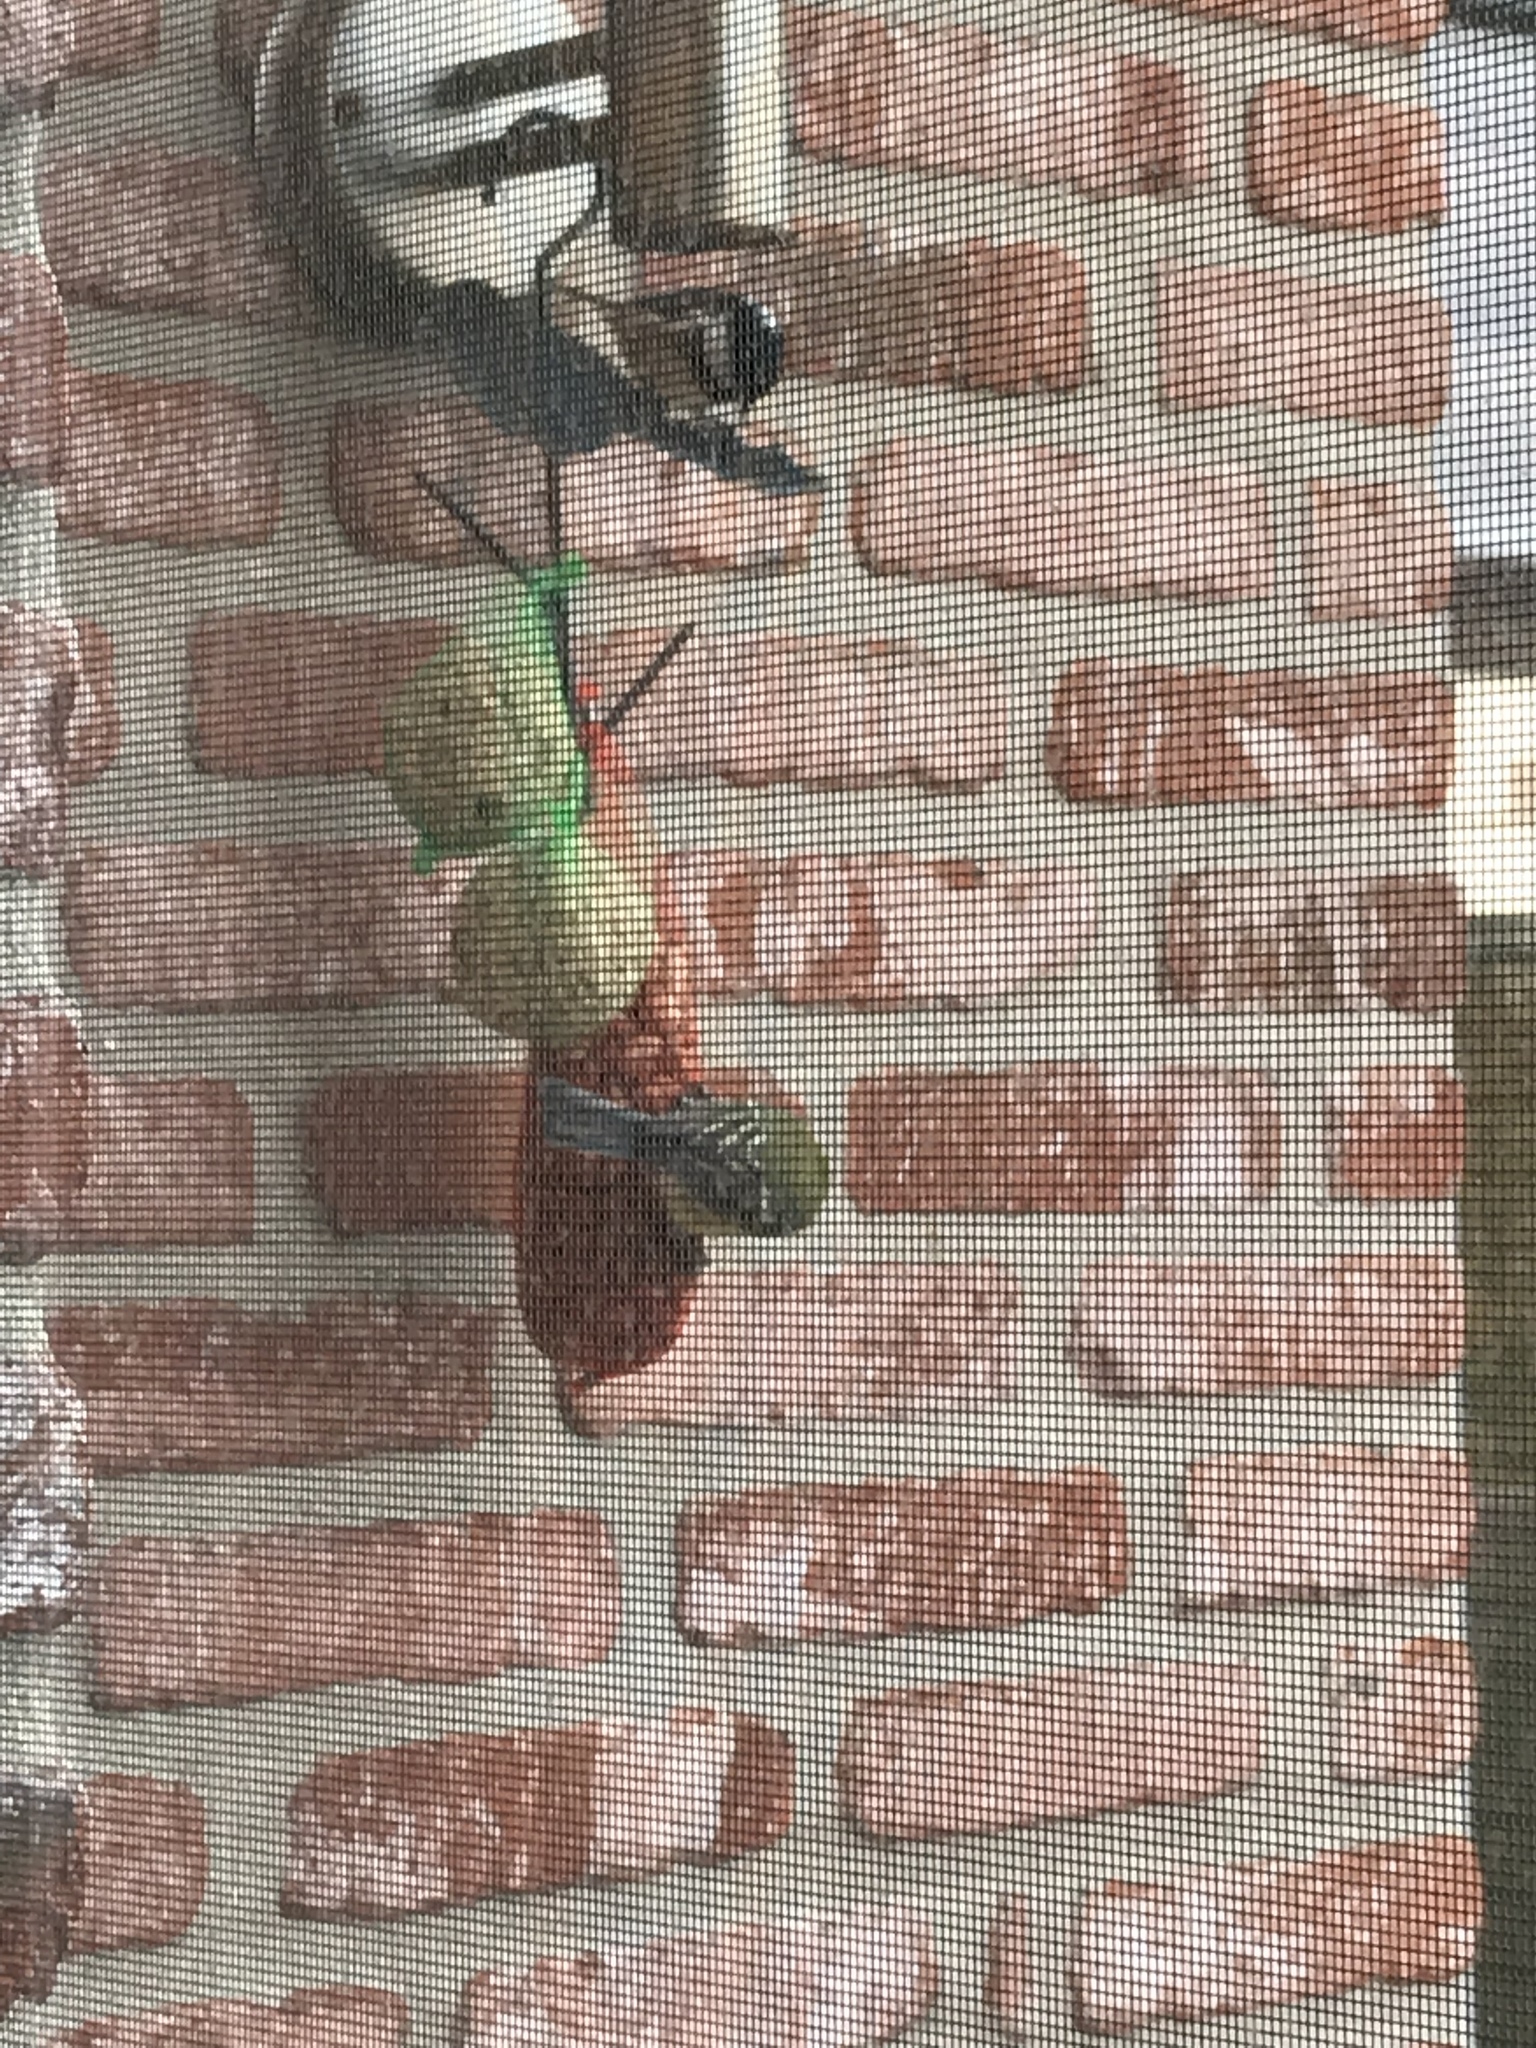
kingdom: Animalia
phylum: Chordata
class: Aves
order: Passeriformes
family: Paridae
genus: Periparus
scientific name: Periparus ater
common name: Coal tit
